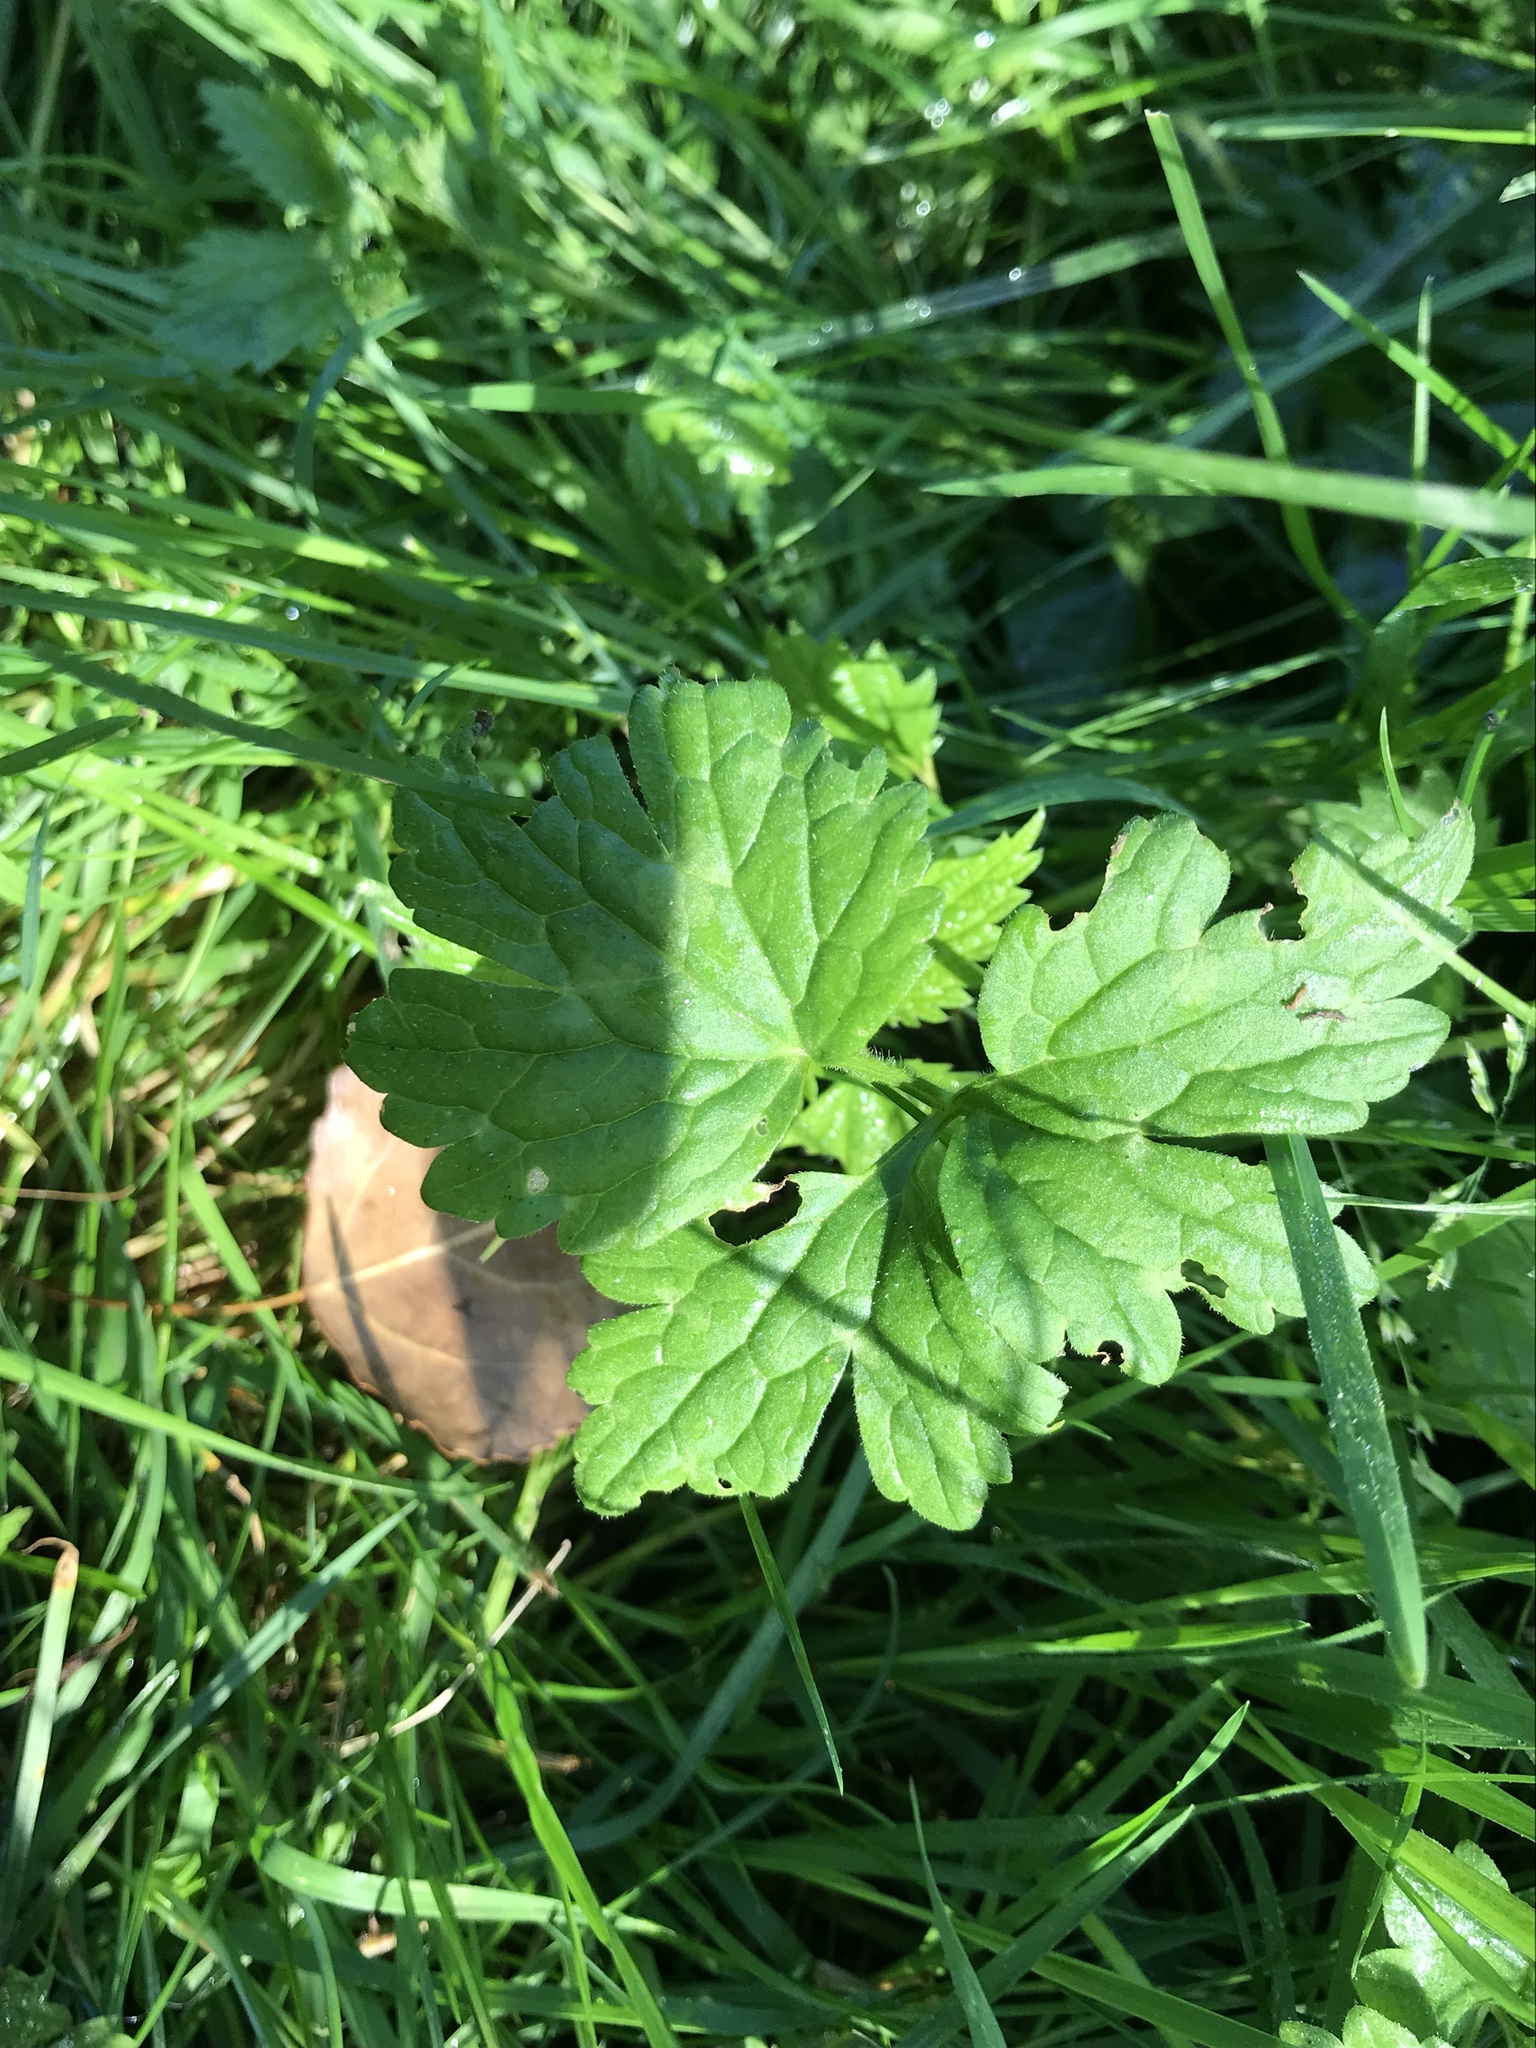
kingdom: Plantae
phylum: Tracheophyta
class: Magnoliopsida
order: Ranunculales
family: Ranunculaceae
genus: Ranunculus
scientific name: Ranunculus repens
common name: Creeping buttercup
